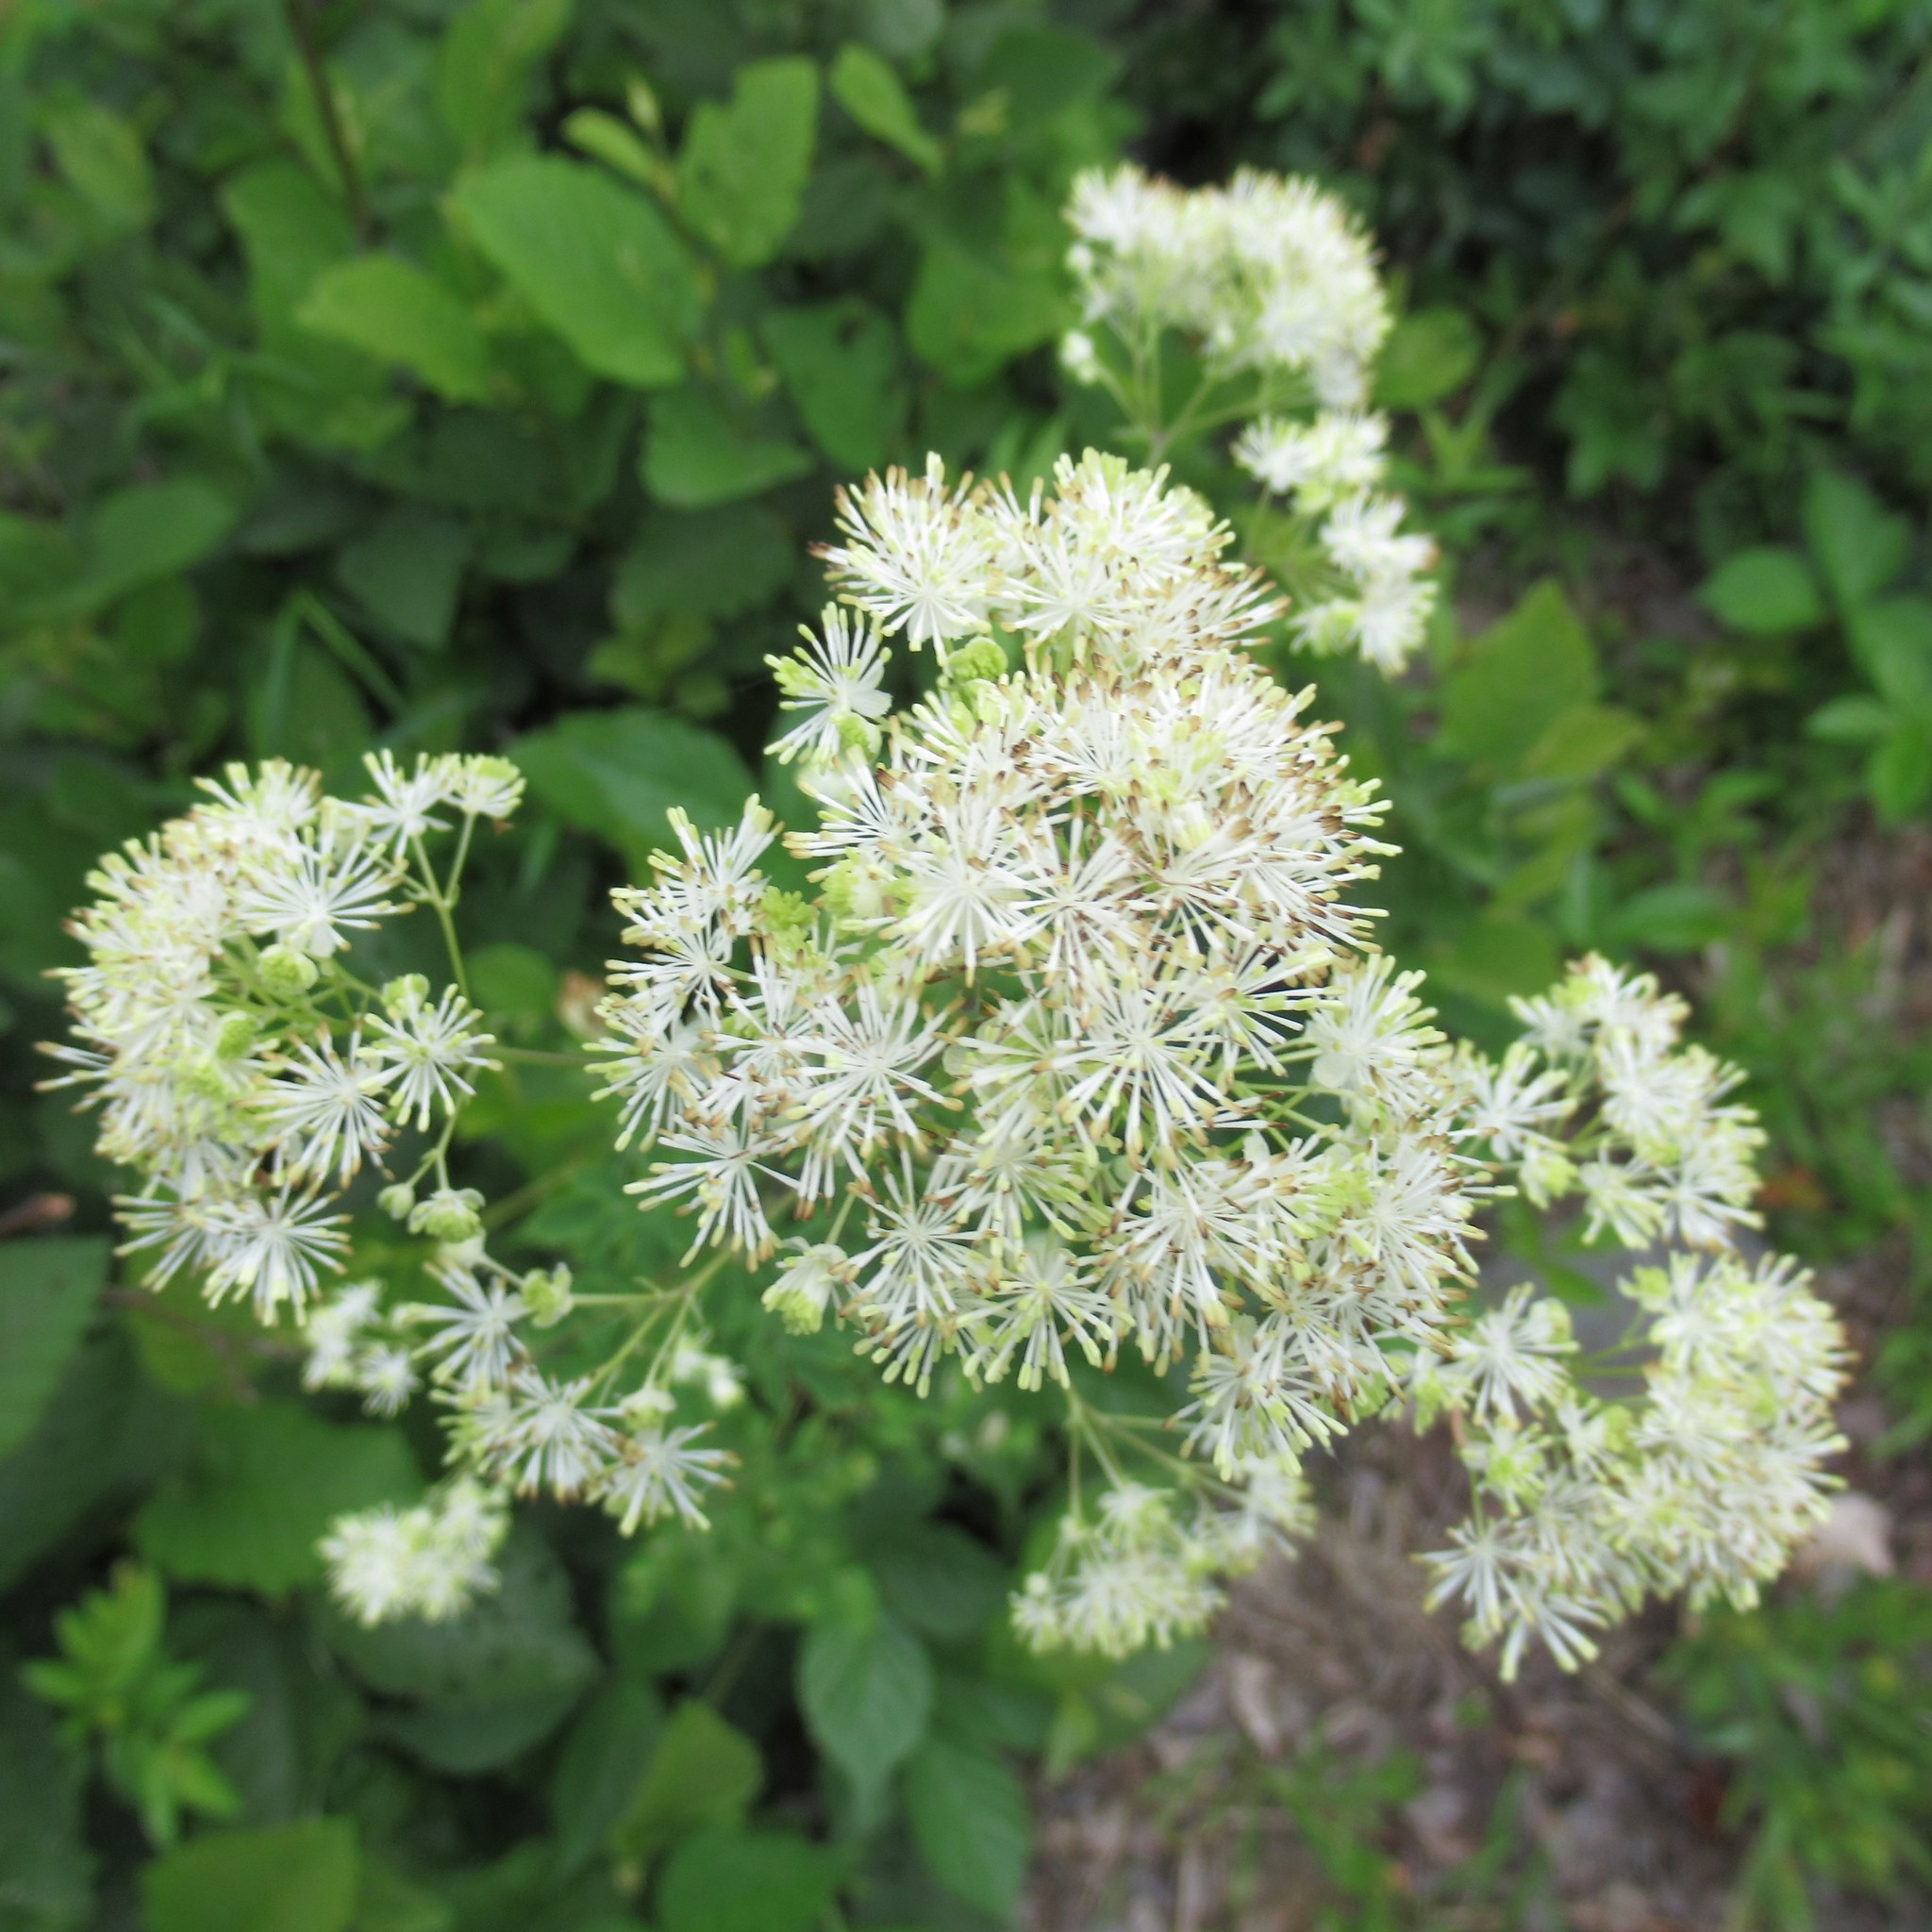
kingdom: Plantae
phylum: Tracheophyta
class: Magnoliopsida
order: Ranunculales
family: Ranunculaceae
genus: Thalictrum
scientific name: Thalictrum pubescens
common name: King-of-the-meadow
